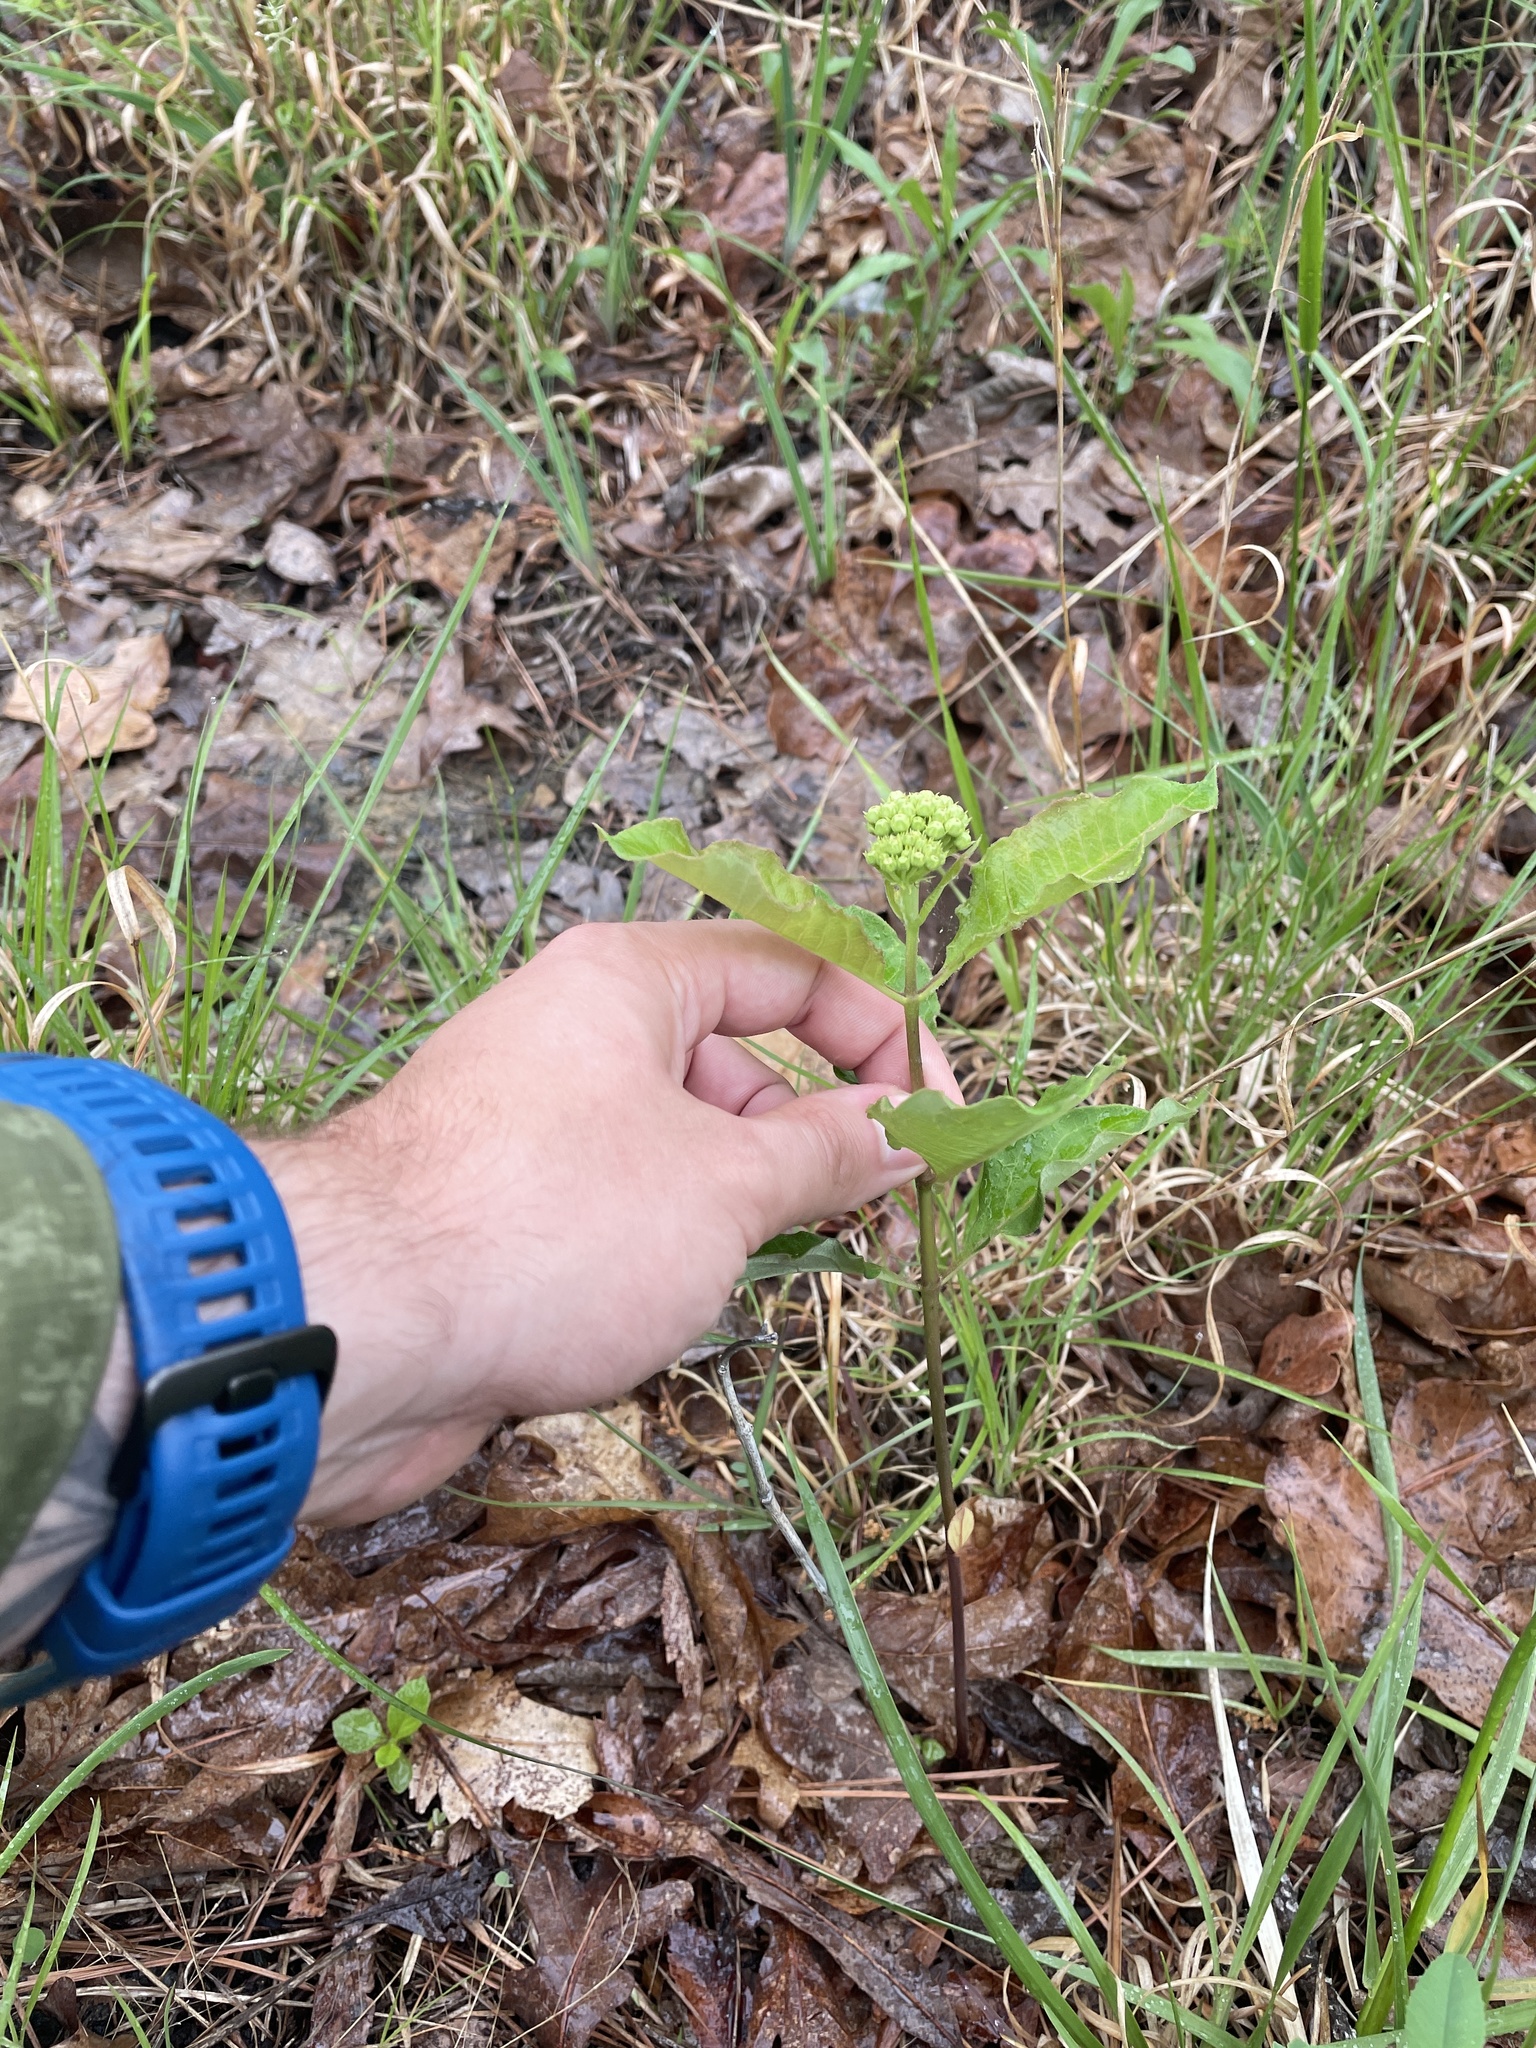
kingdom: Plantae
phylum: Tracheophyta
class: Magnoliopsida
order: Gentianales
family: Apocynaceae
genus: Asclepias
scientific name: Asclepias variegata
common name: Variegated milkweed
